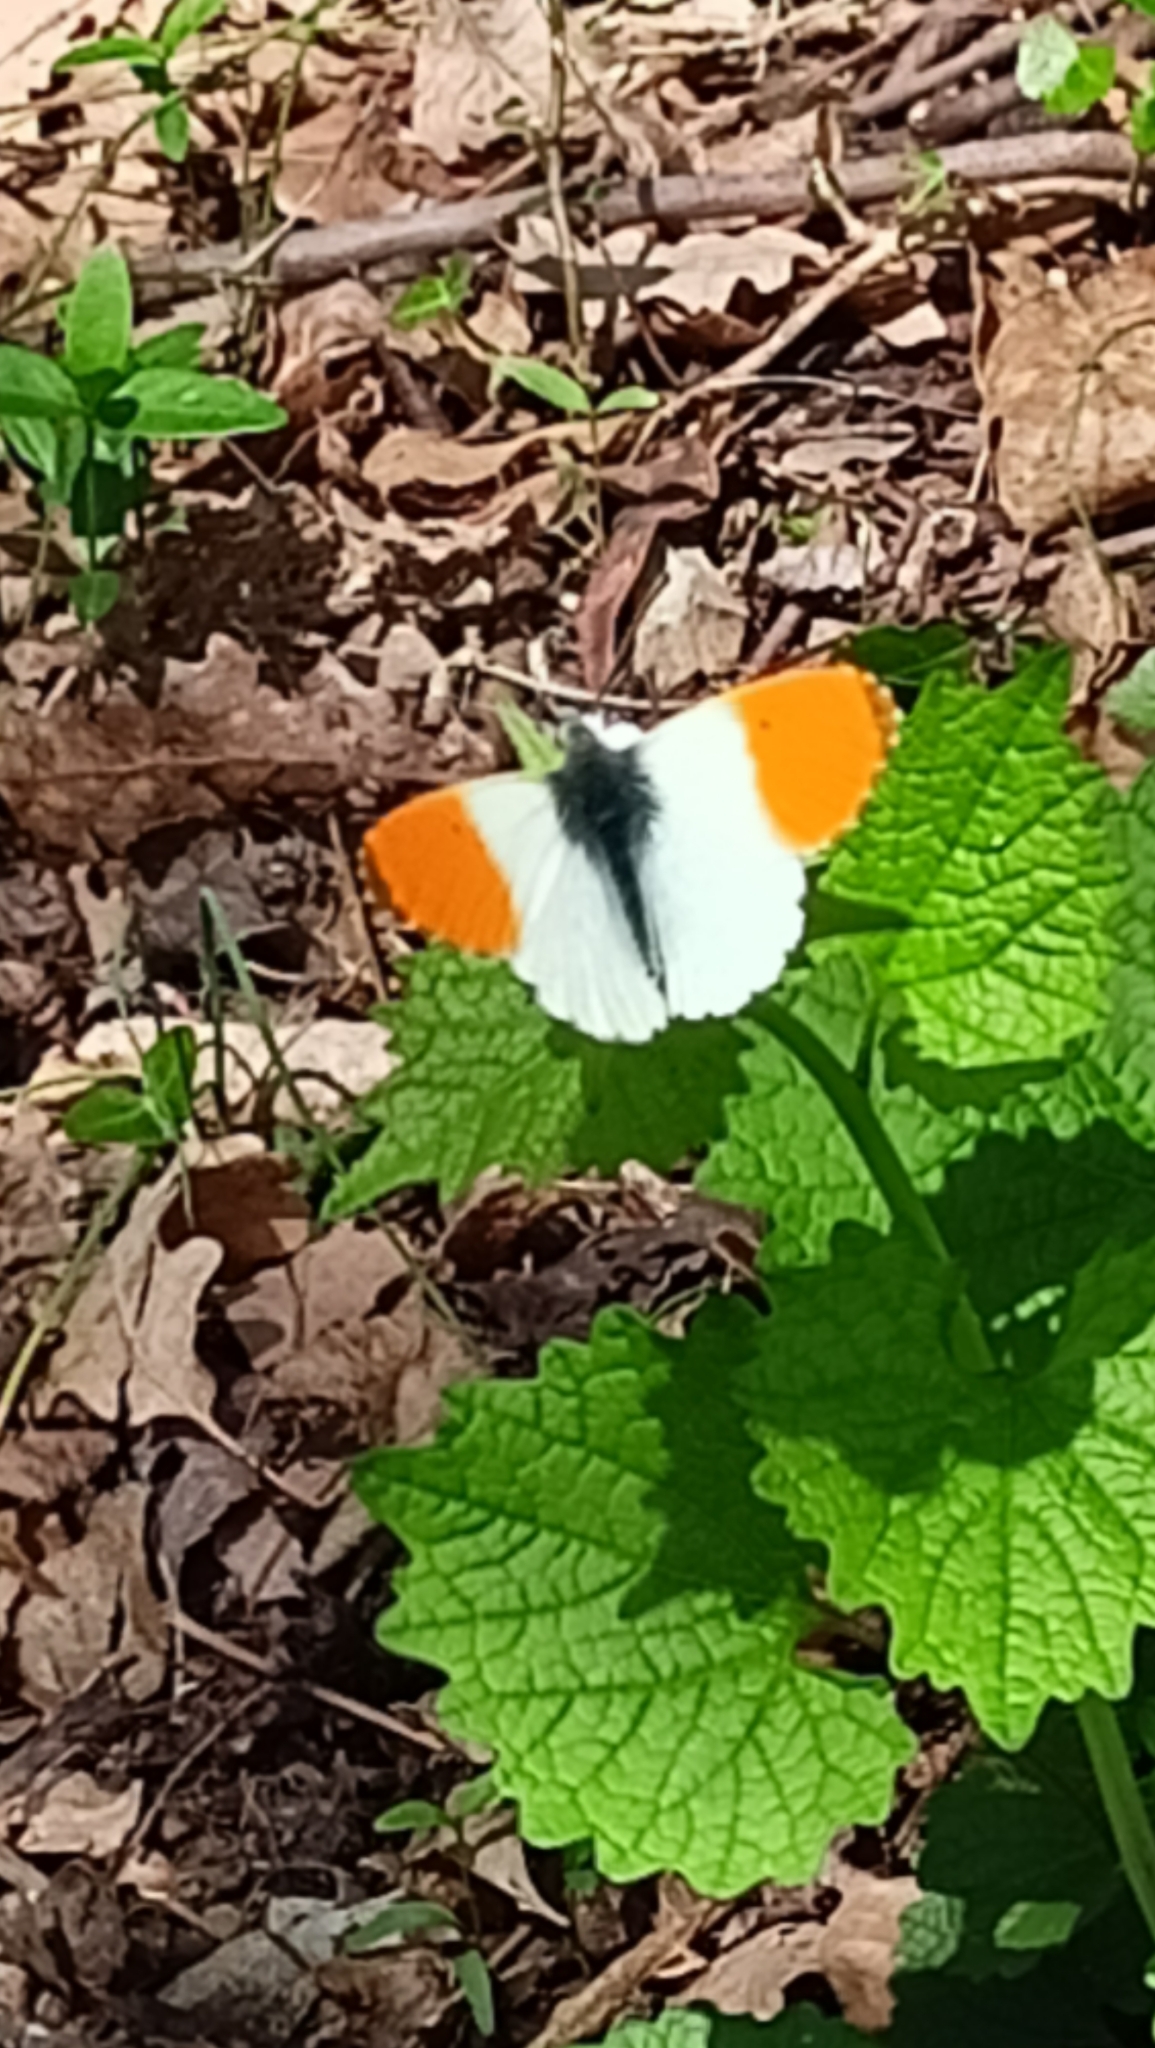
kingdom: Animalia
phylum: Arthropoda
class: Insecta
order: Lepidoptera
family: Pieridae
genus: Anthocharis
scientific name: Anthocharis cardamines
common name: Orange-tip
